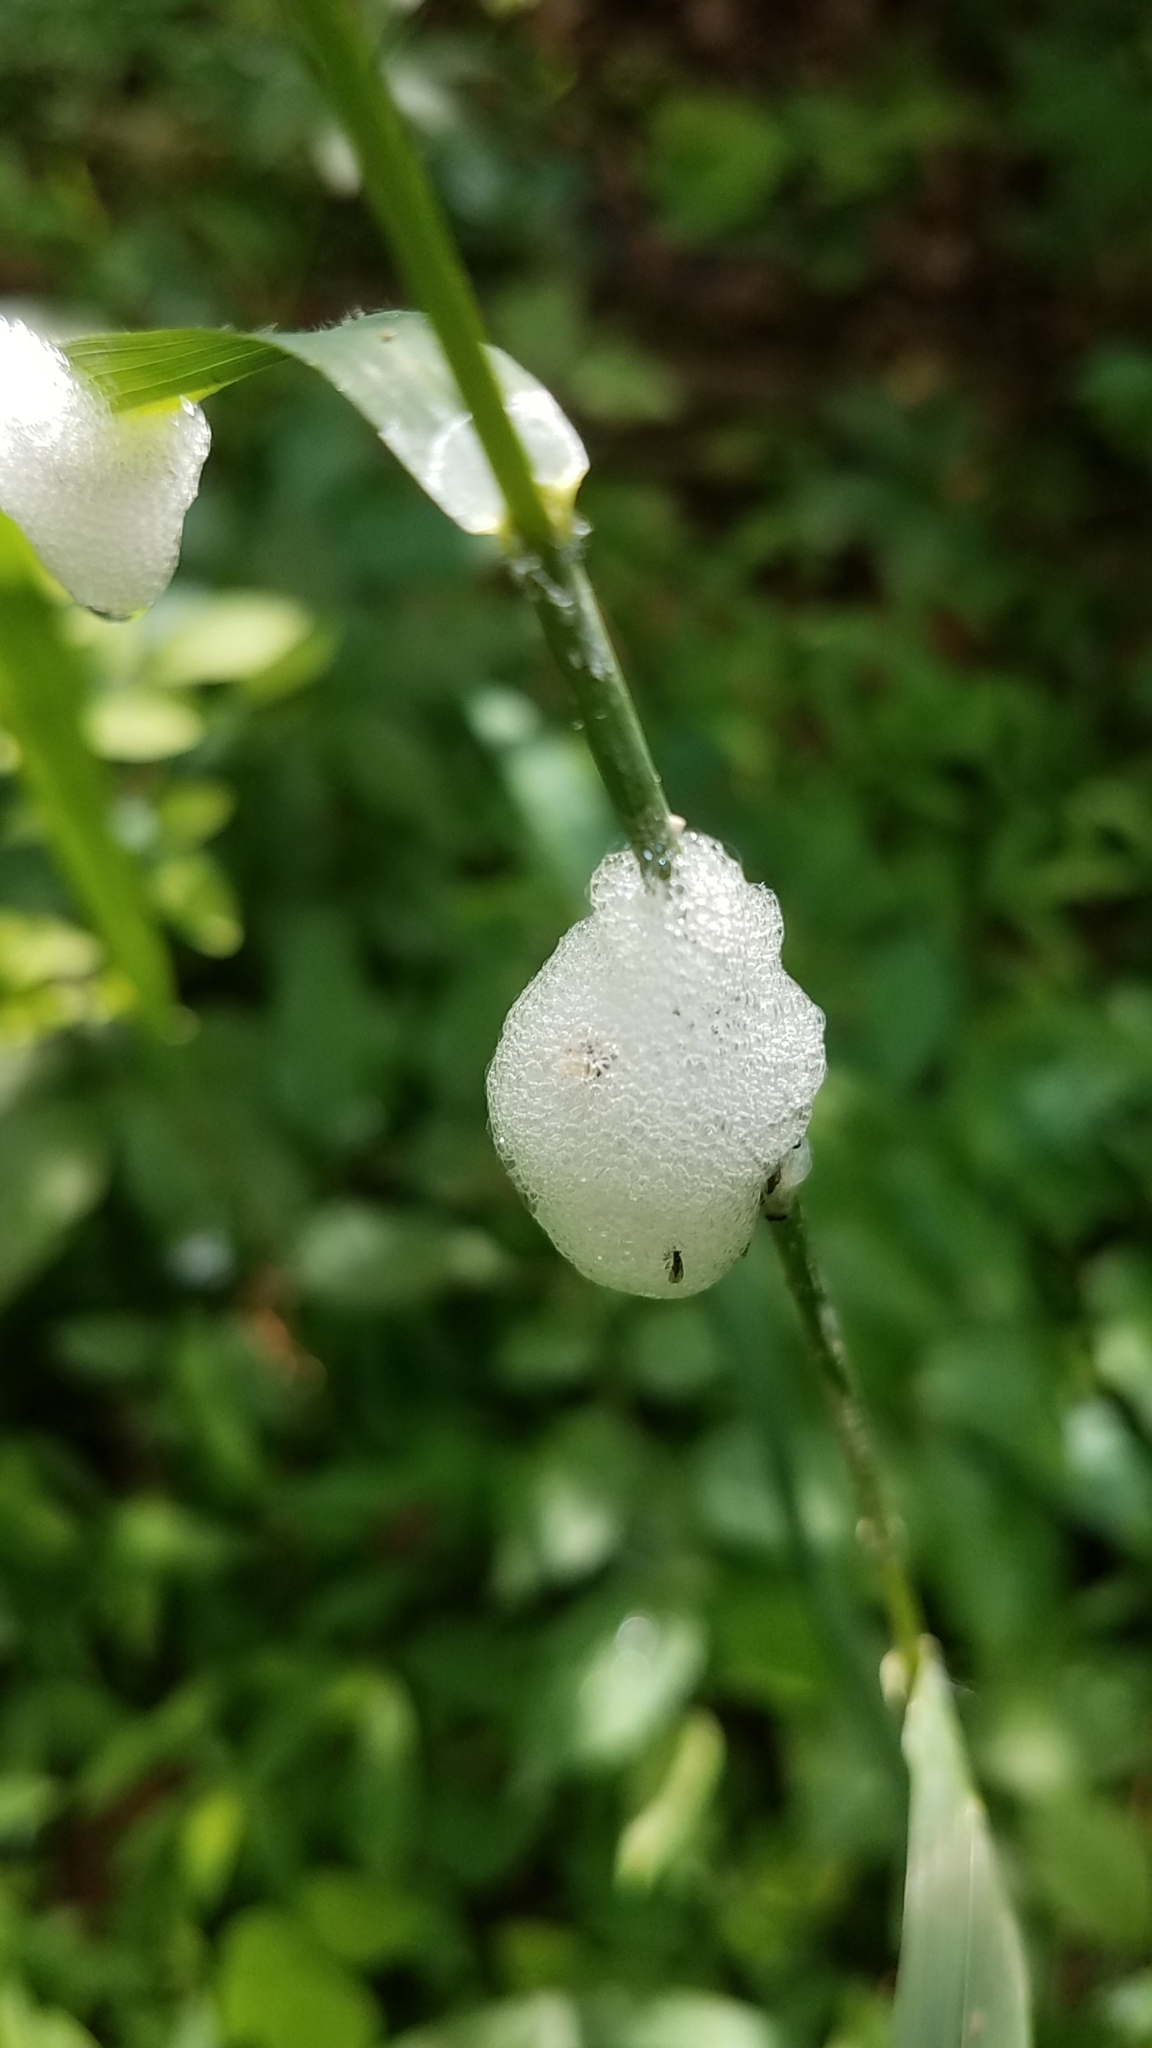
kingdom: Animalia
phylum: Arthropoda
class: Insecta
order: Hemiptera
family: Aphrophoridae
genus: Philaenus
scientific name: Philaenus spumarius
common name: Meadow spittlebug
